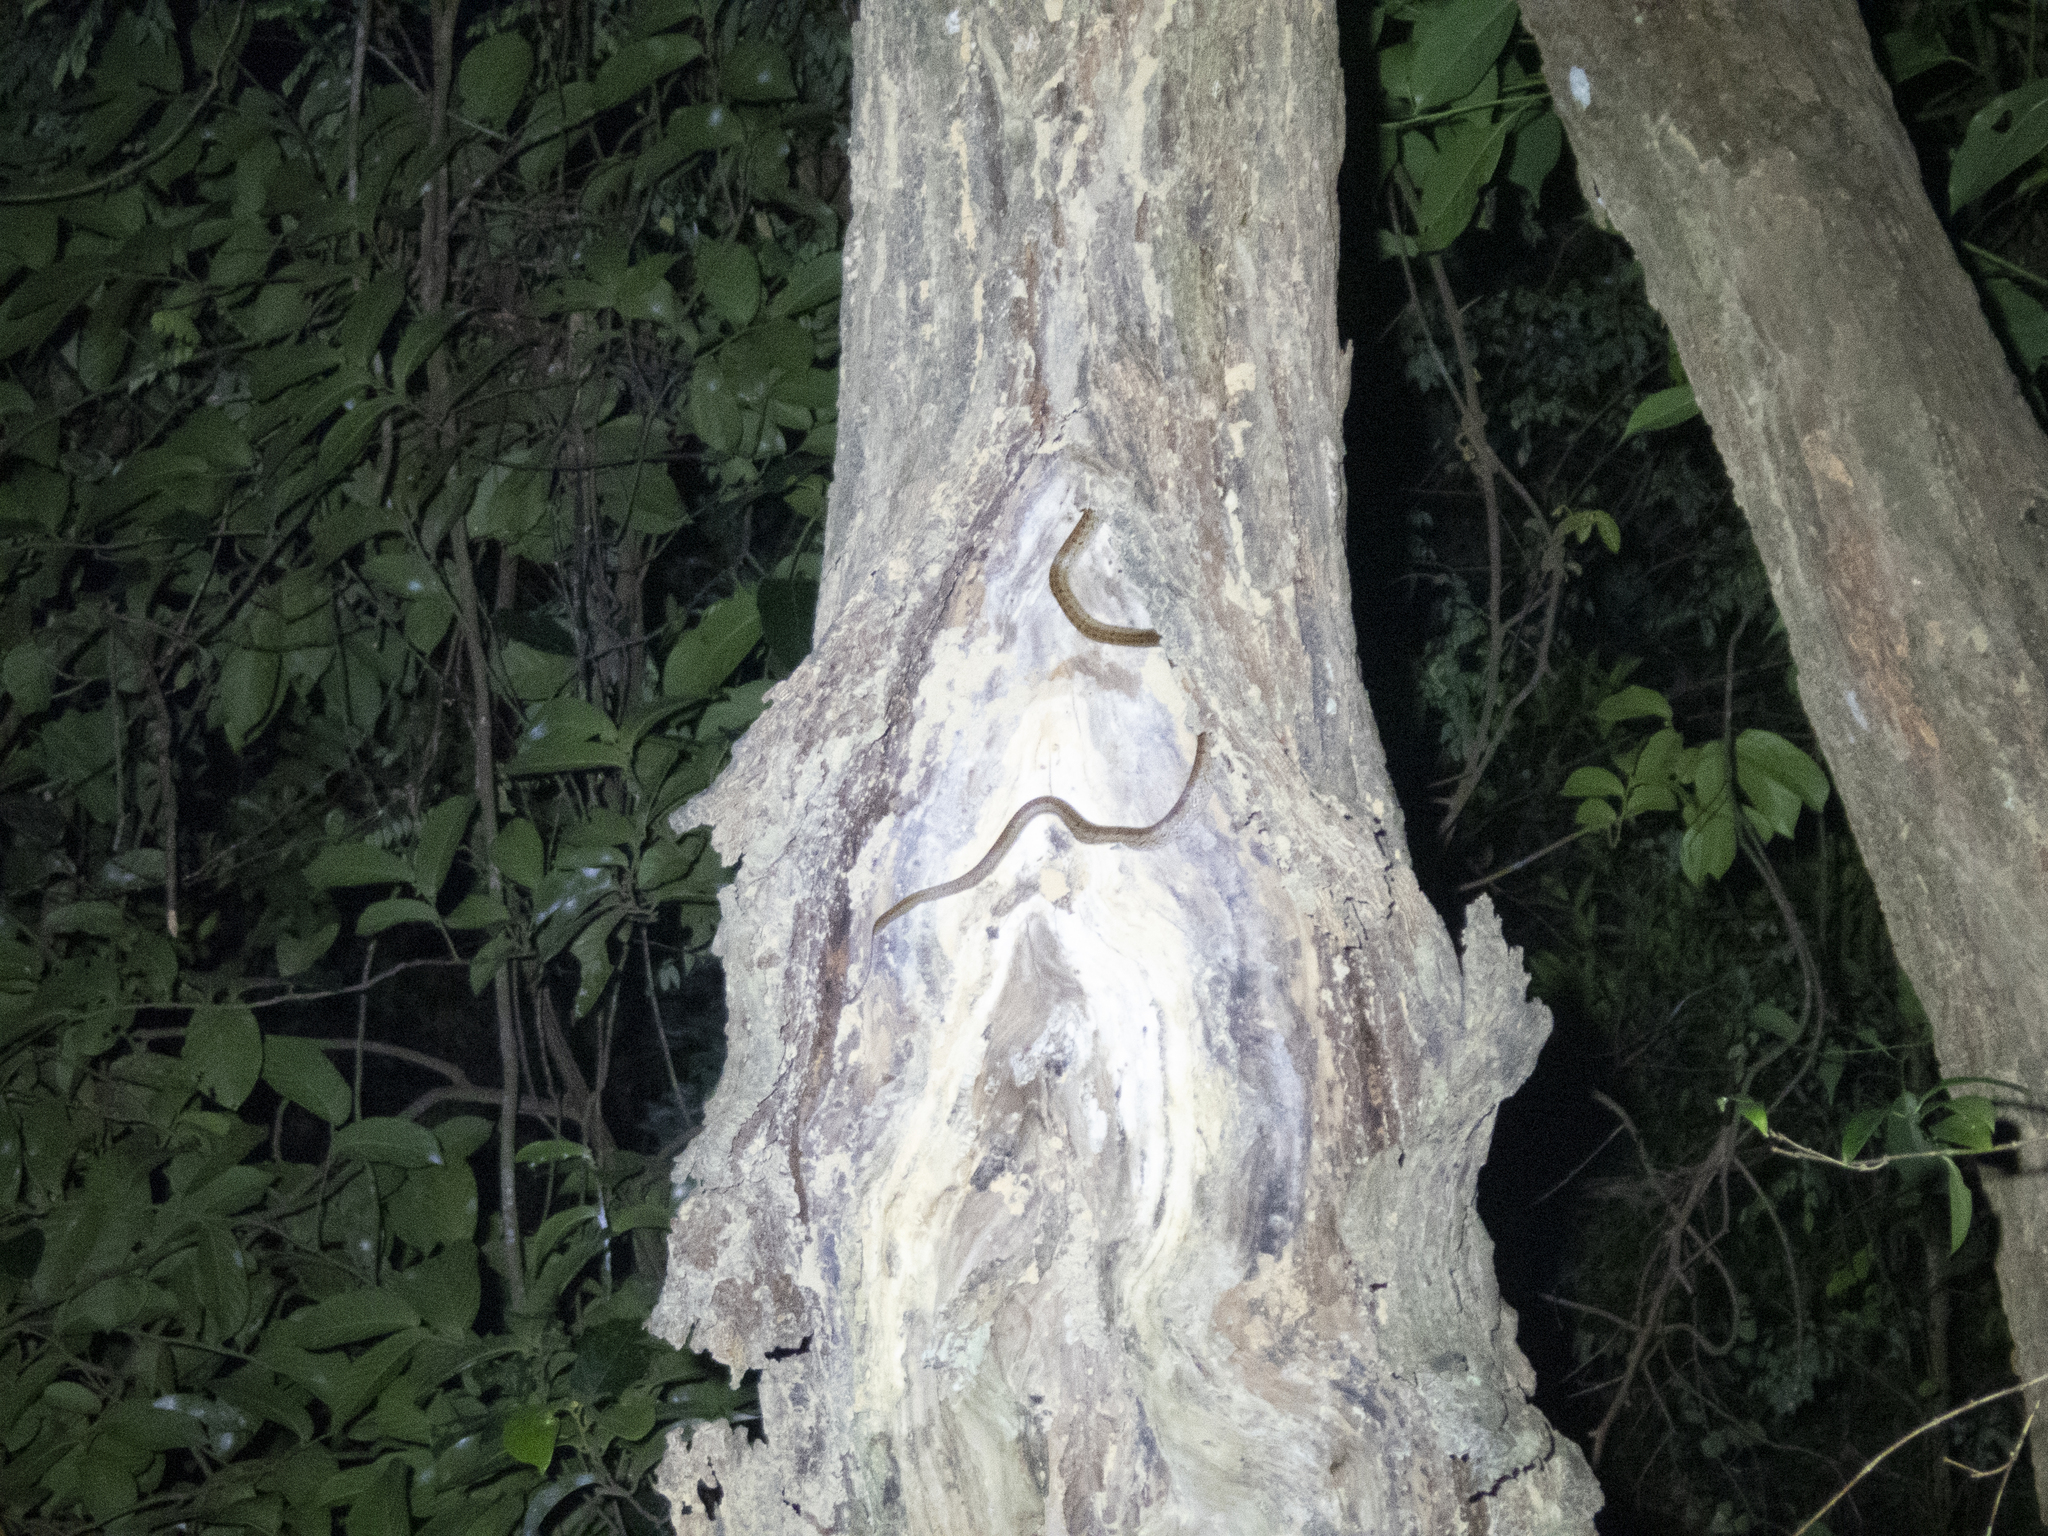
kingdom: Animalia
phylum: Chordata
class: Squamata
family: Colubridae
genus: Oligodon
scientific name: Oligodon formosanus
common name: Formosa kukri snake
